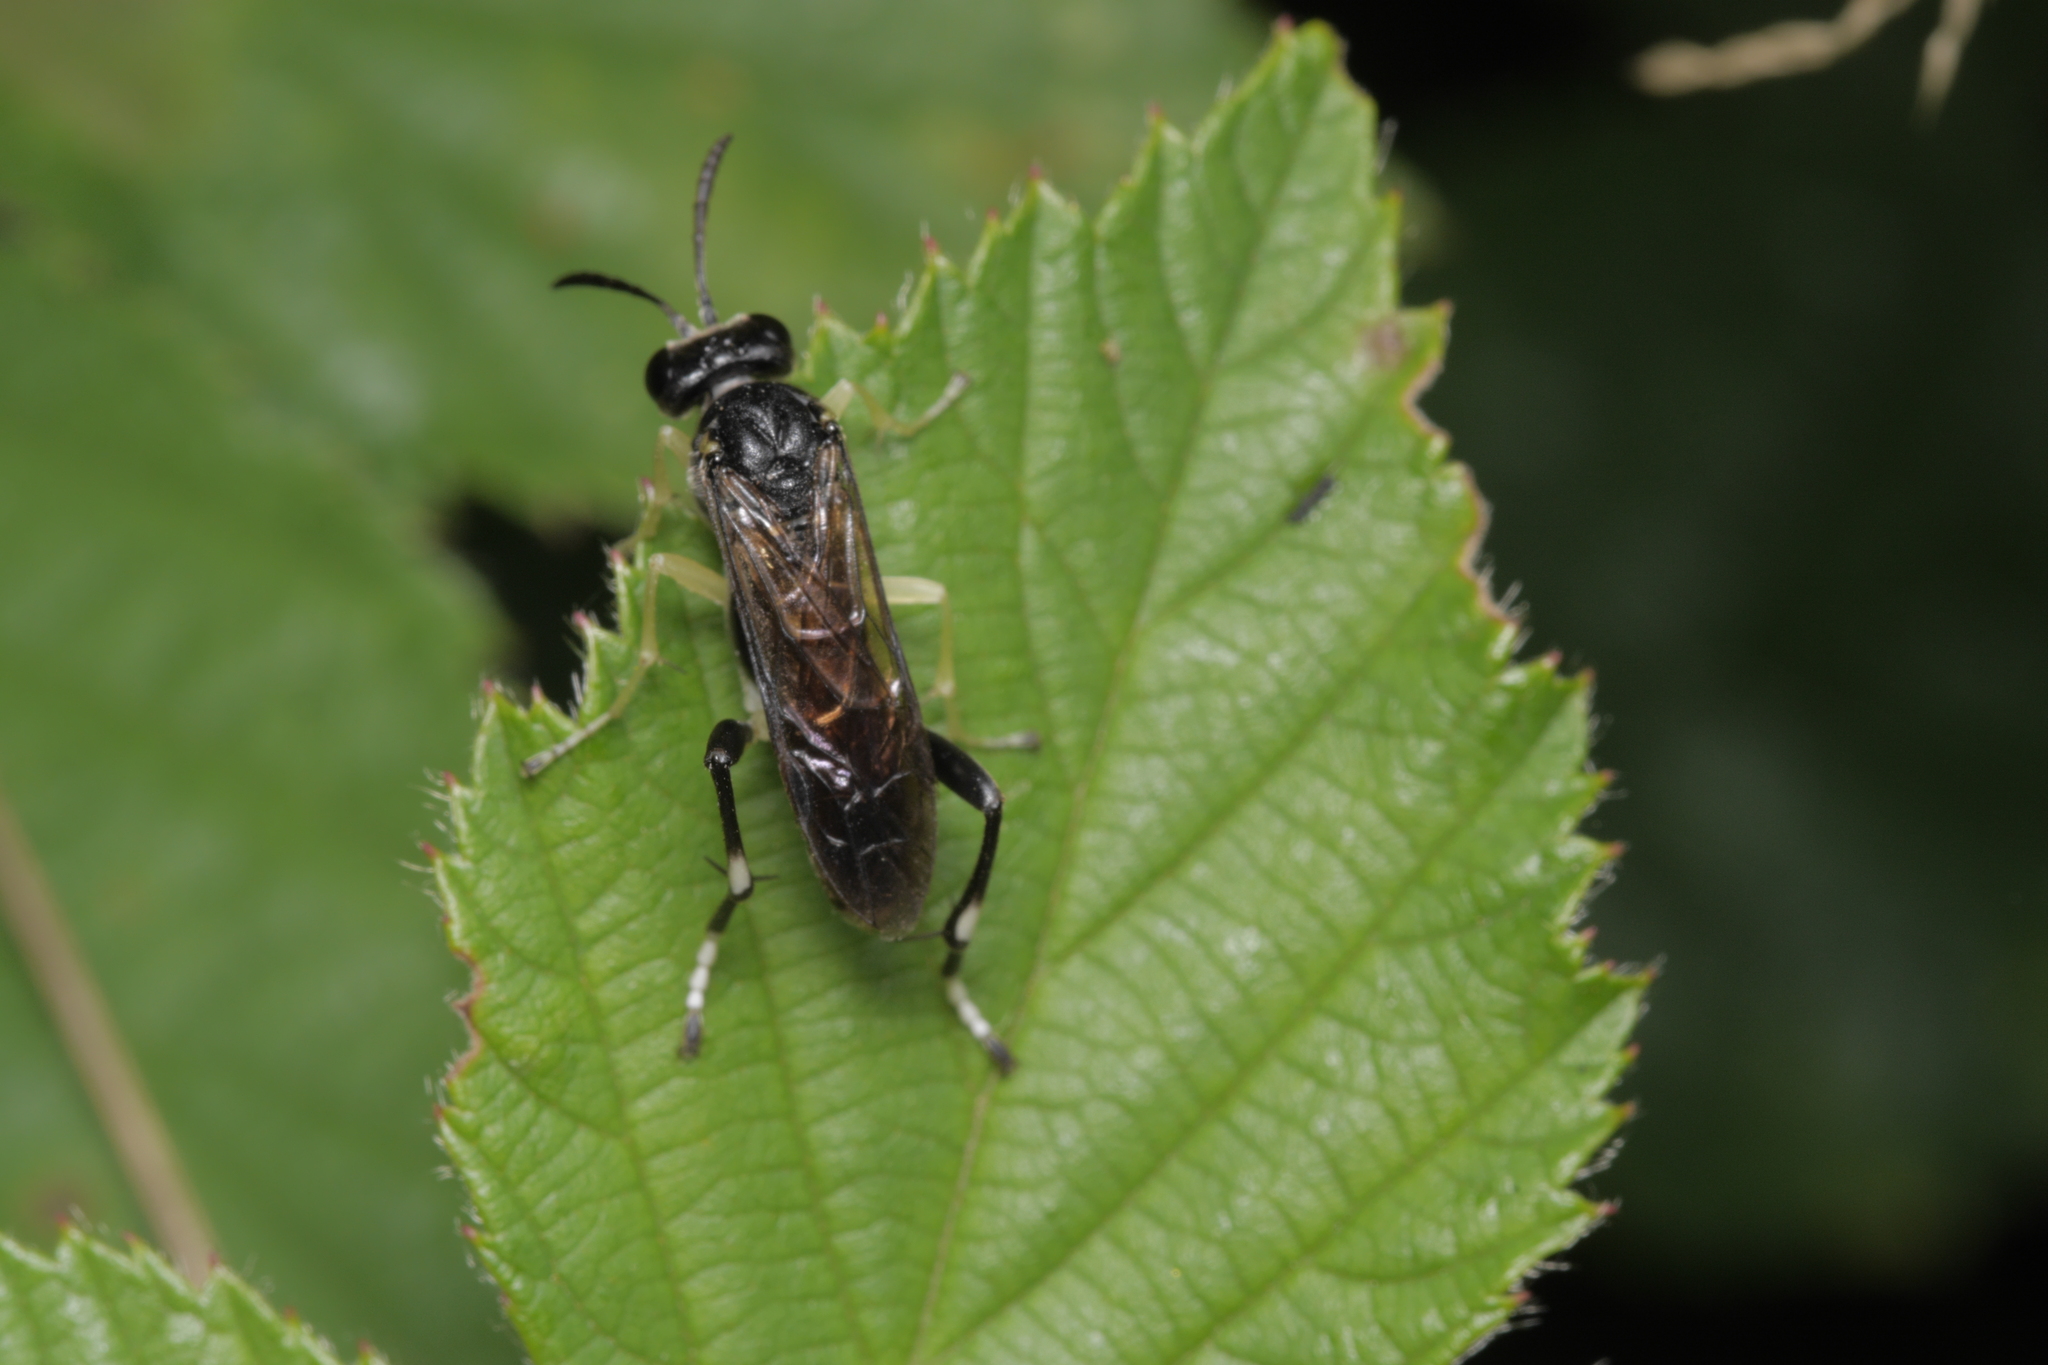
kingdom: Animalia
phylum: Arthropoda
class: Insecta
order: Hymenoptera
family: Tenthredinidae
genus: Macrophya
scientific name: Macrophya montana
